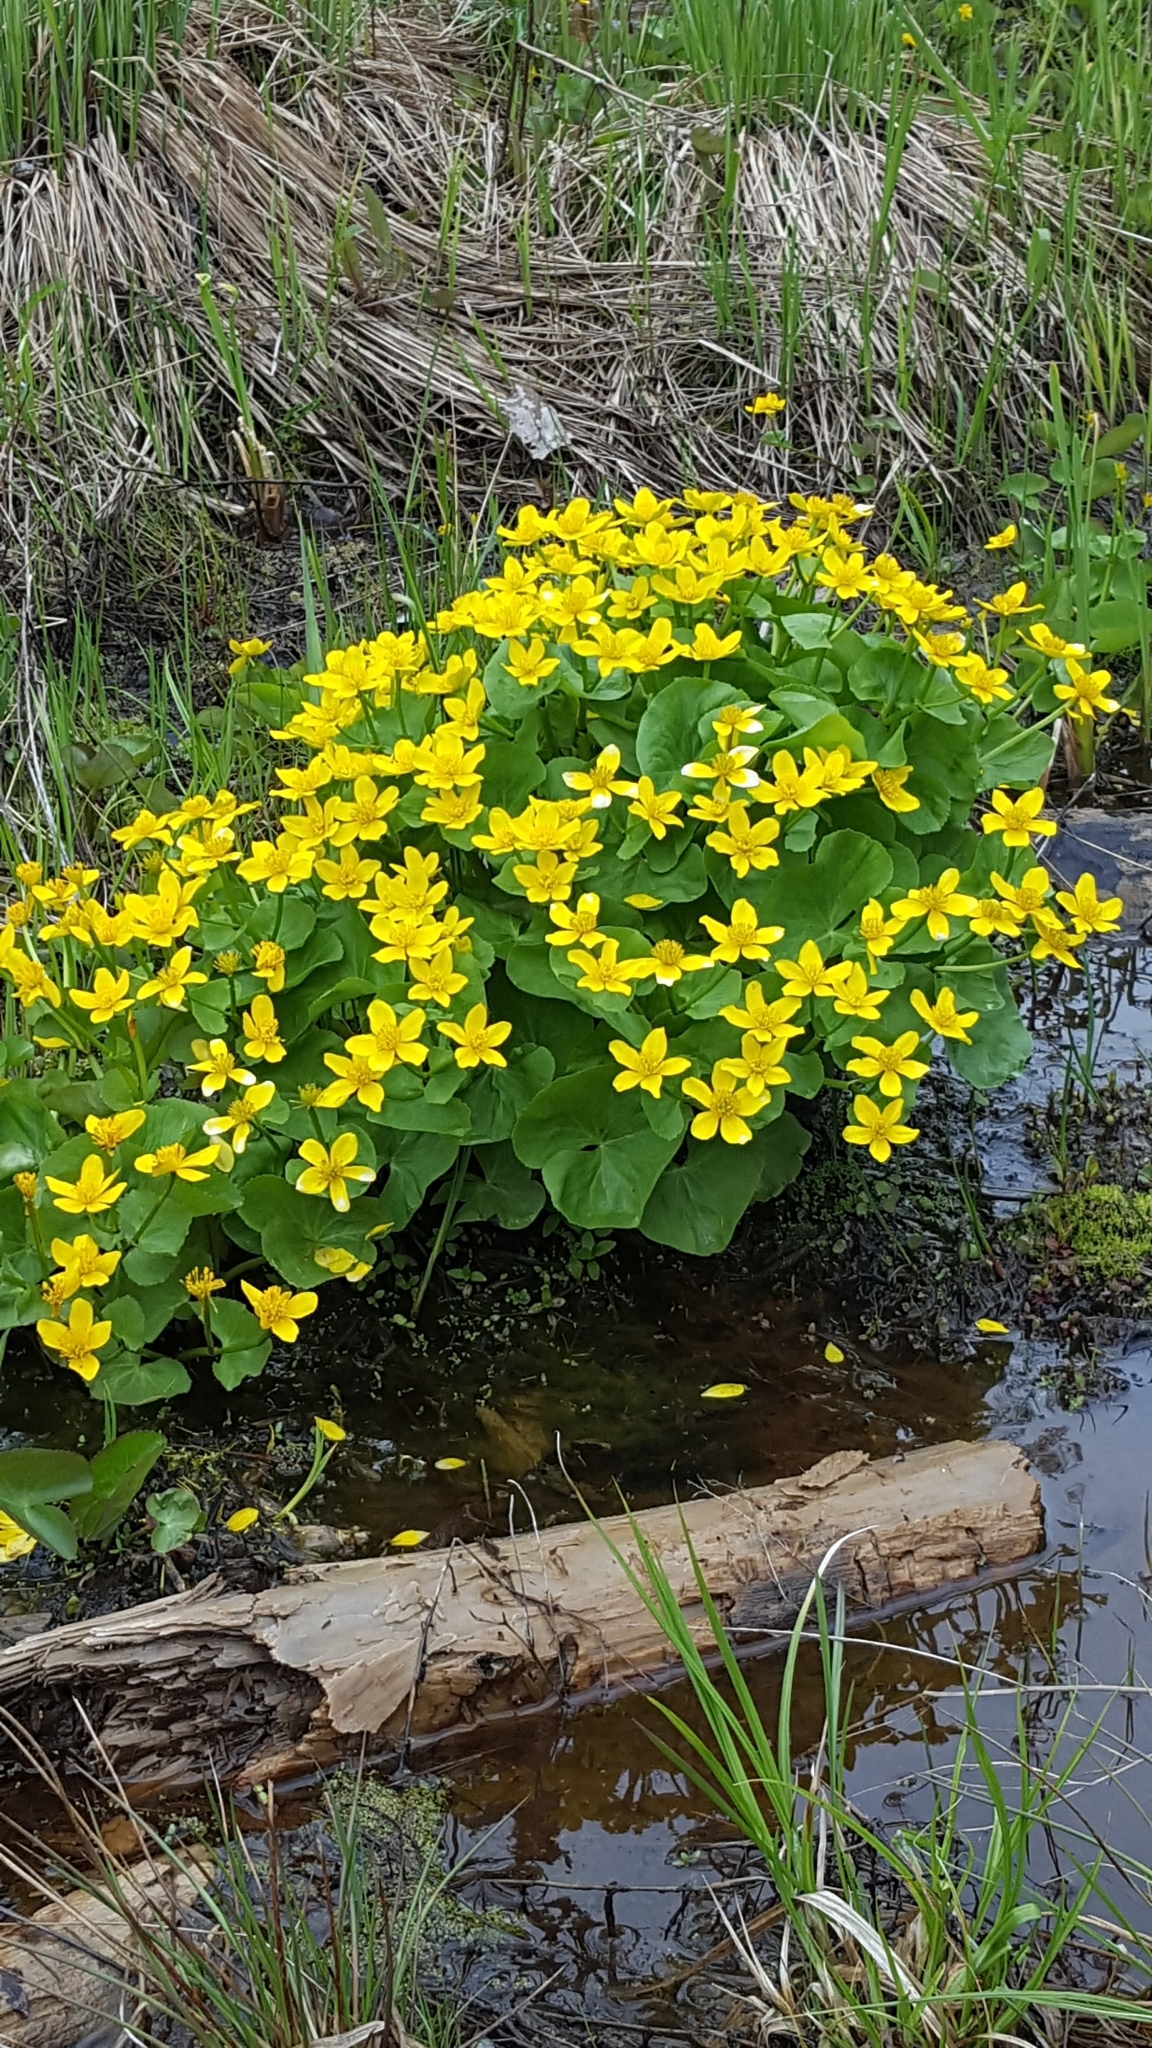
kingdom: Plantae
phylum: Tracheophyta
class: Magnoliopsida
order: Ranunculales
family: Ranunculaceae
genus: Caltha
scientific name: Caltha palustris
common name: Marsh marigold
